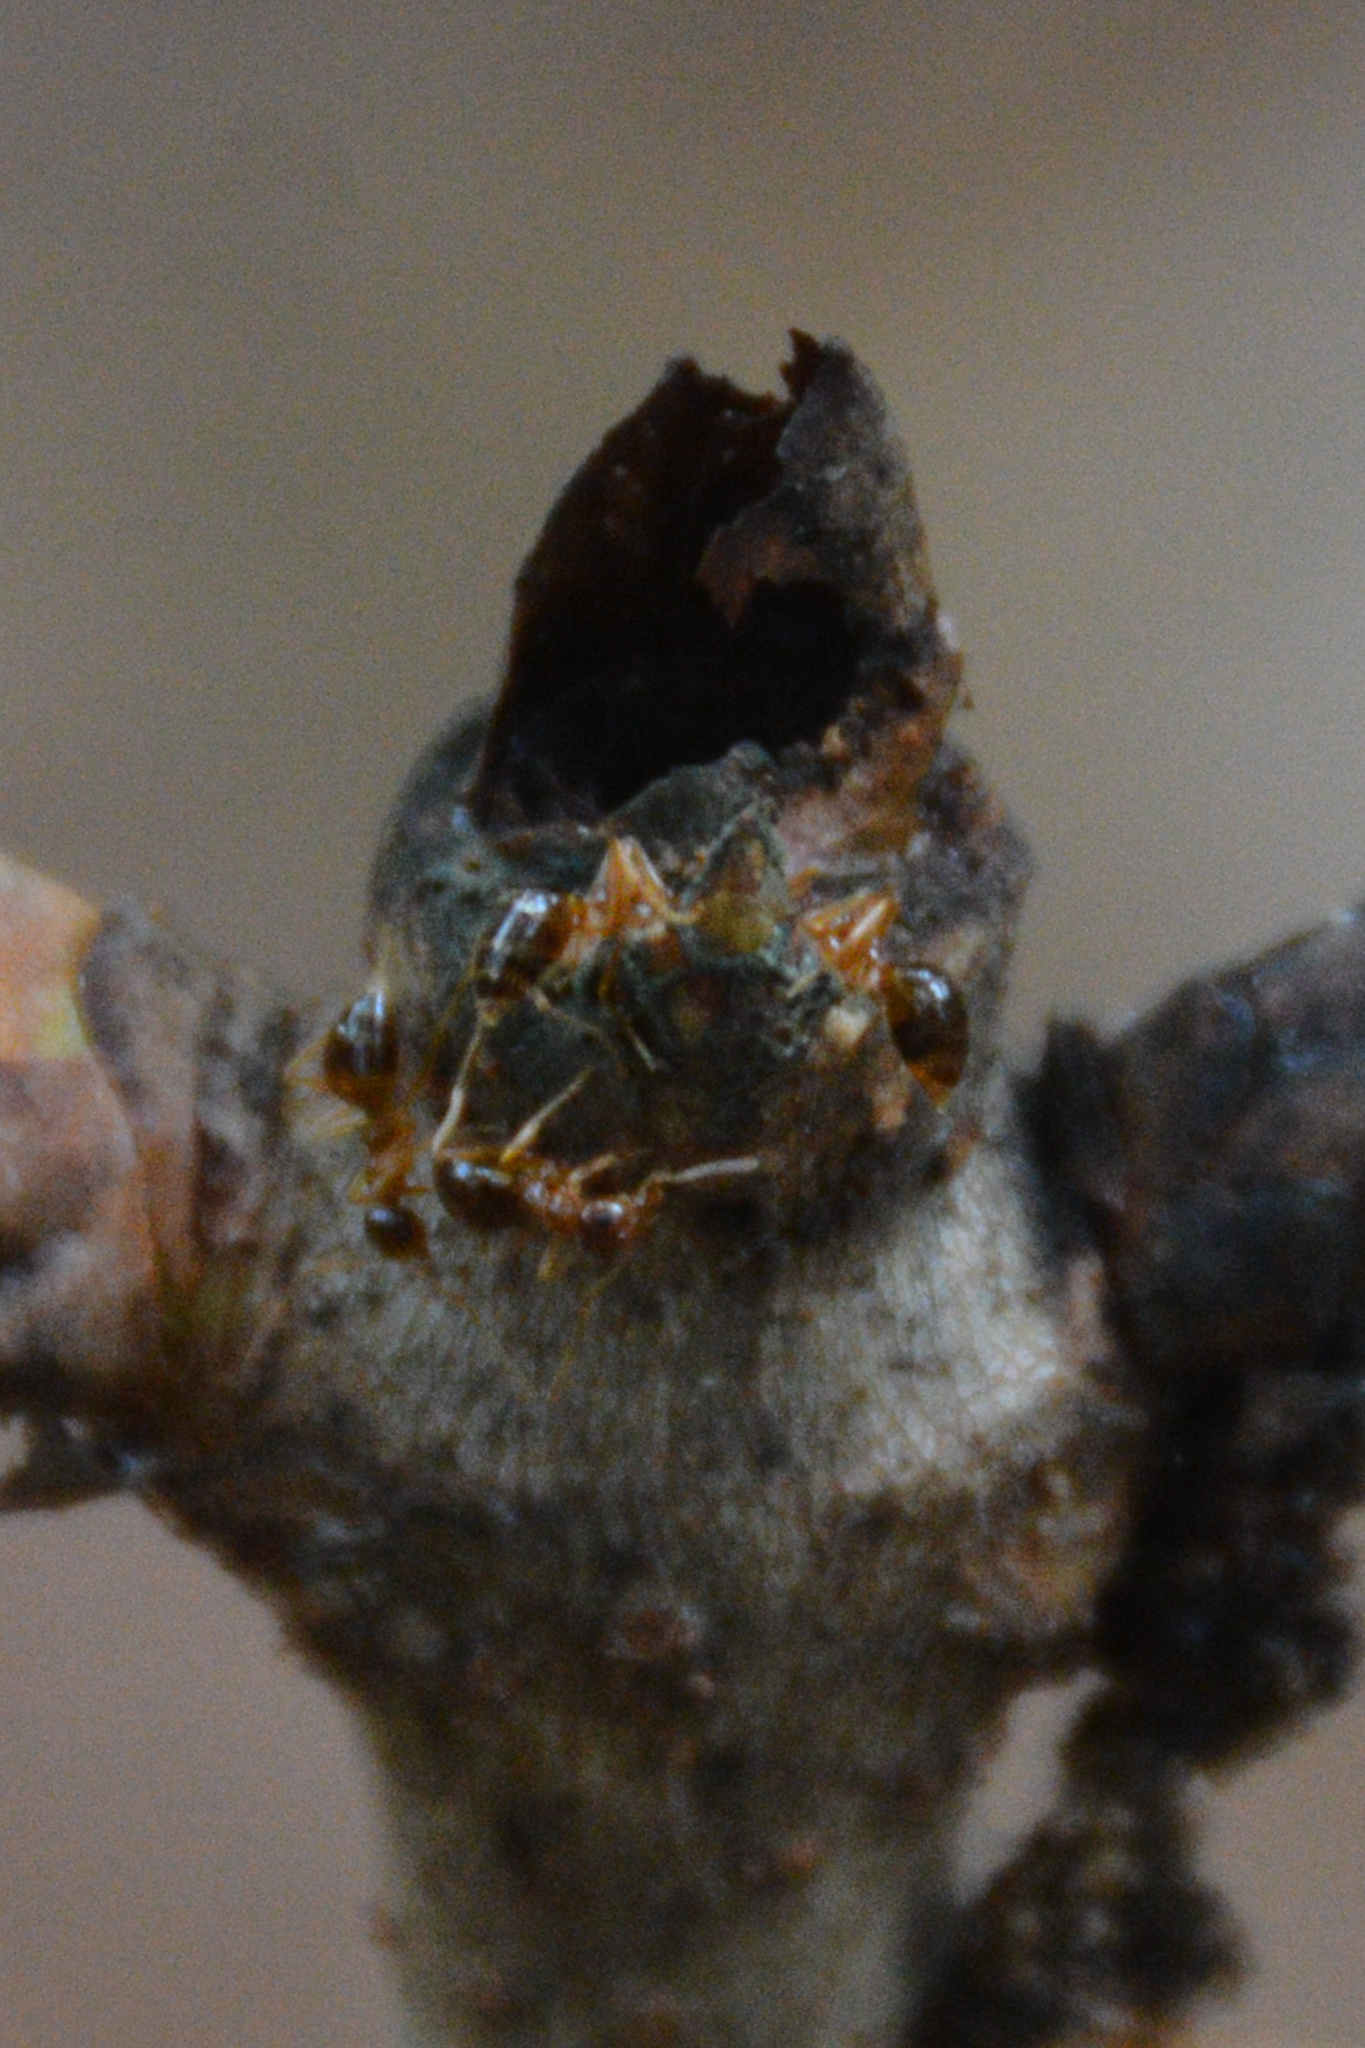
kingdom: Animalia
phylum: Arthropoda
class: Insecta
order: Hymenoptera
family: Formicidae
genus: Prenolepis
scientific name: Prenolepis imparis
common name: Small honey ant
